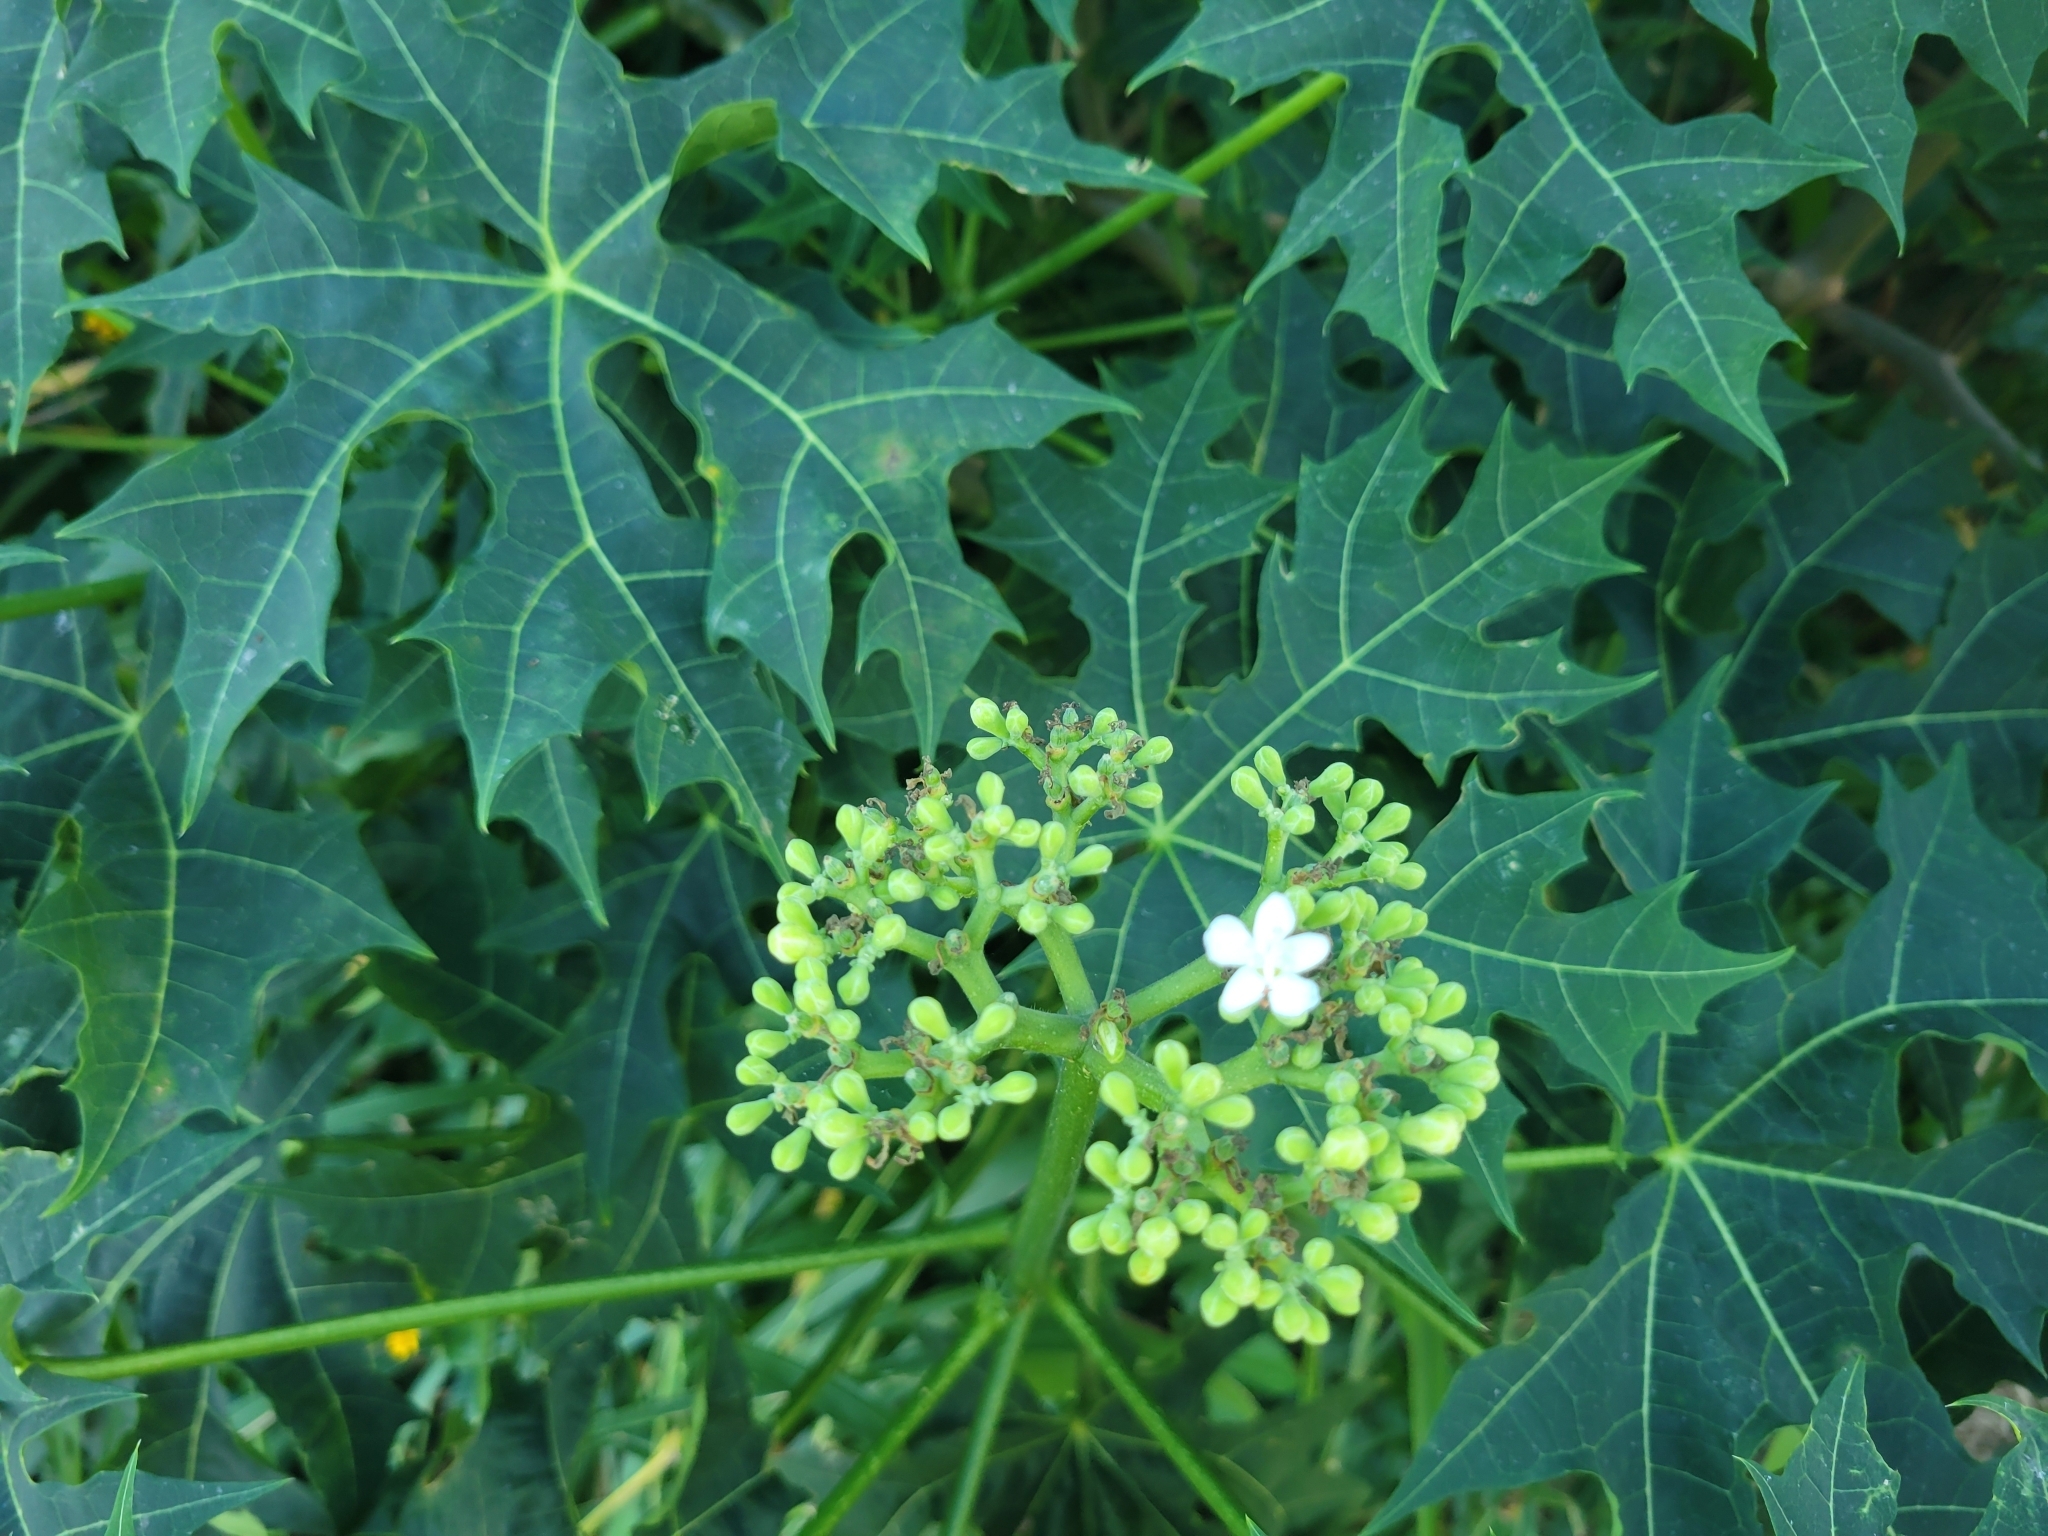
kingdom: Plantae
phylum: Tracheophyta
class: Magnoliopsida
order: Malpighiales
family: Euphorbiaceae
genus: Cnidoscolus
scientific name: Cnidoscolus aconitifolius
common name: Cabbage-star
